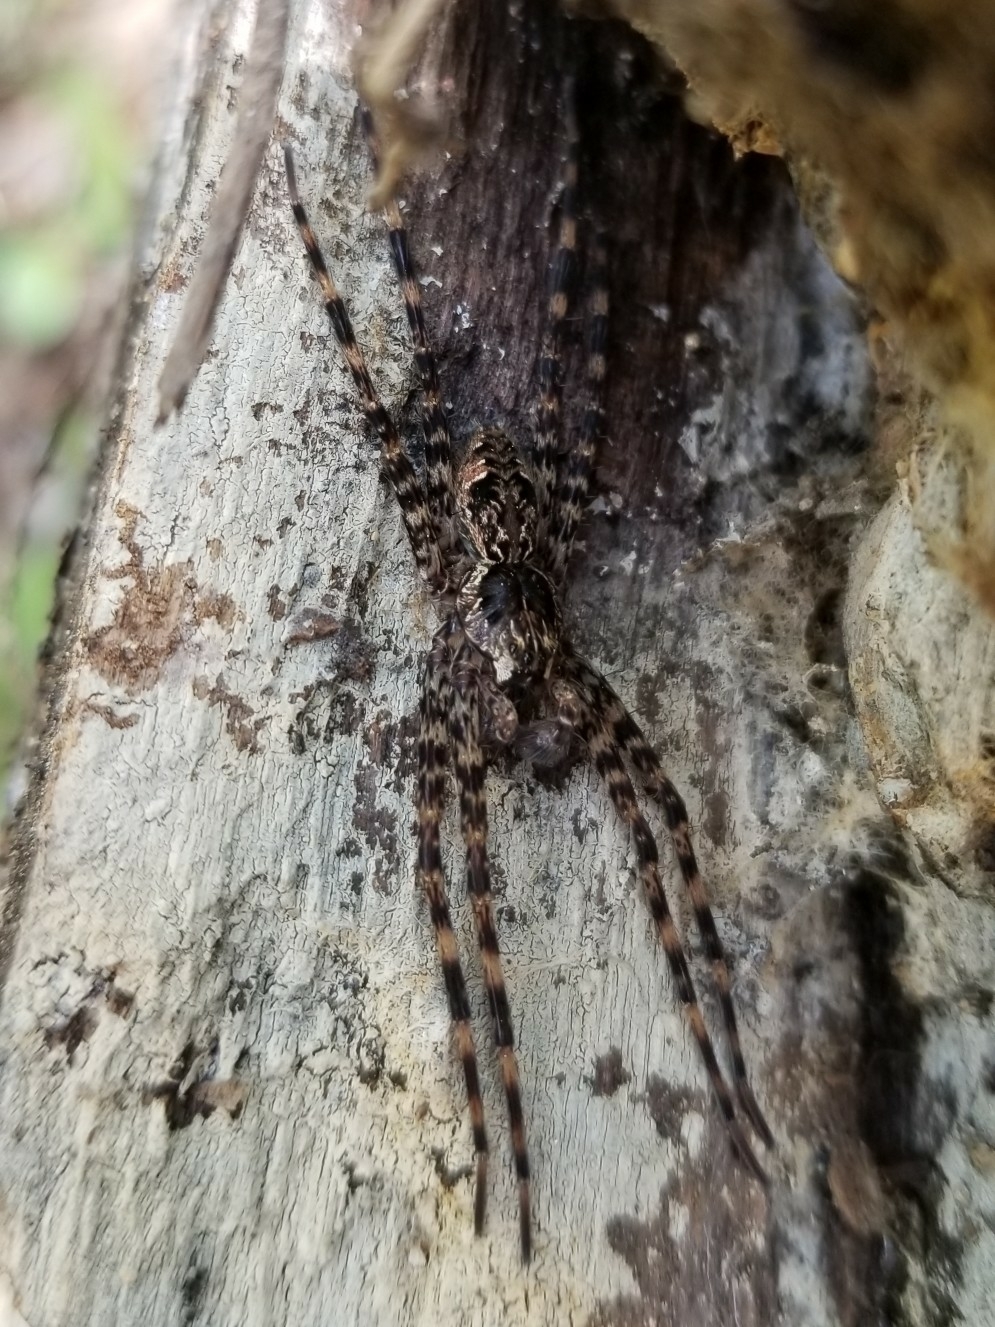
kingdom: Animalia
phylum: Arthropoda
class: Arachnida
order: Araneae
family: Pisauridae
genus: Dolomedes
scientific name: Dolomedes tenebrosus
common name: Dark fishing spider
